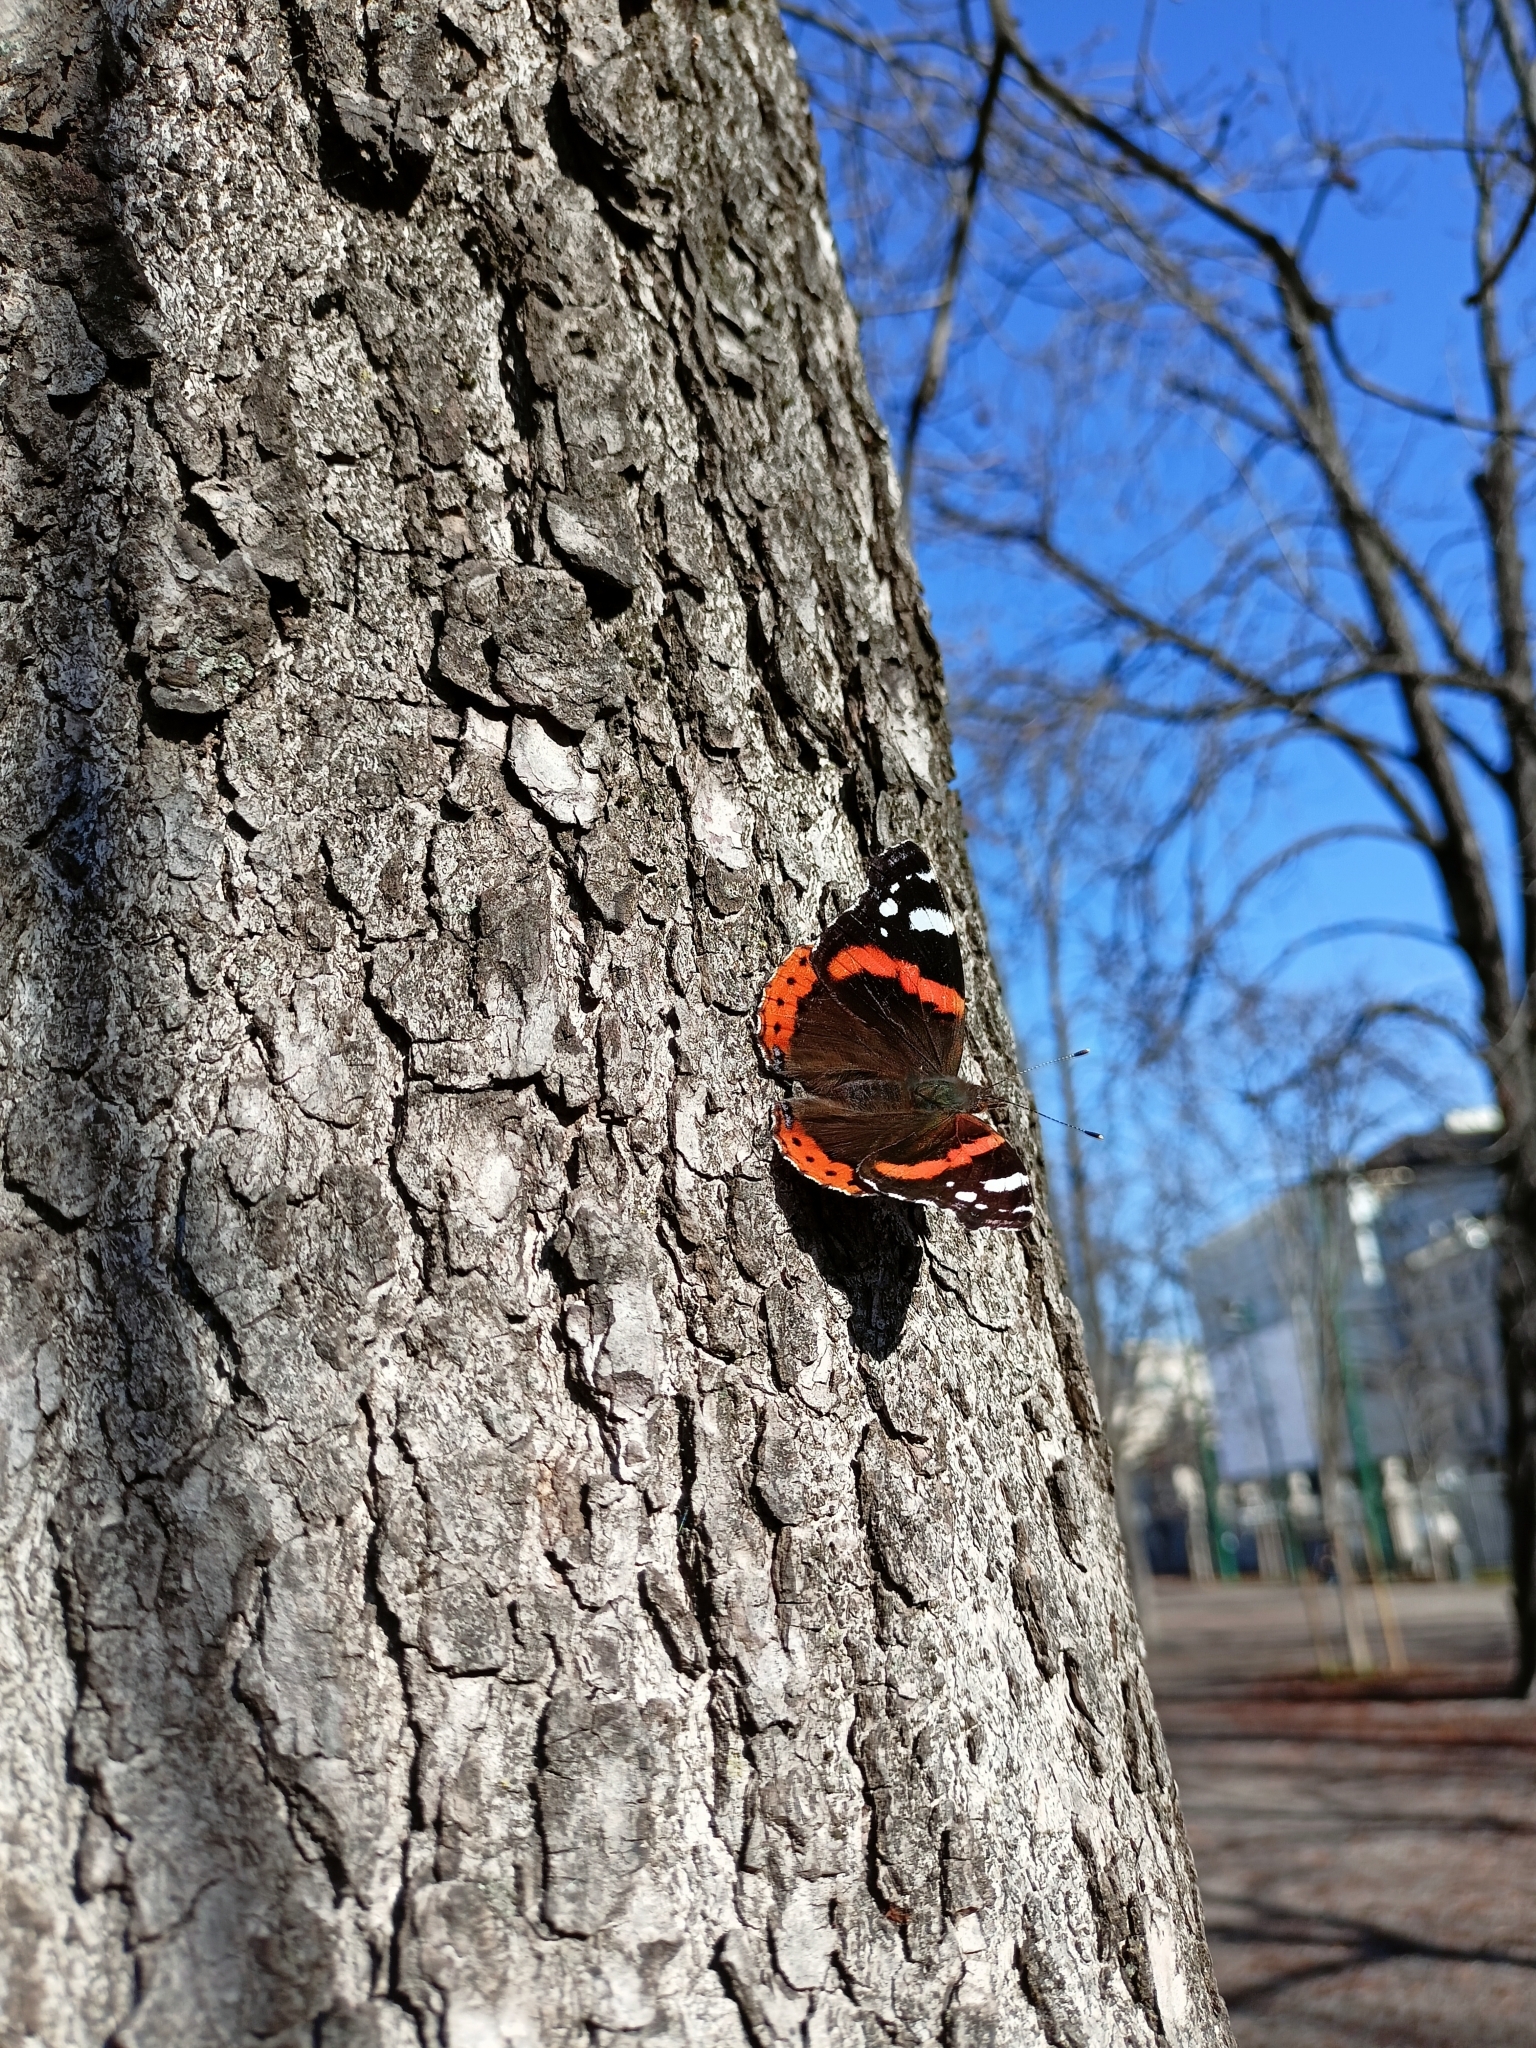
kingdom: Animalia
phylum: Arthropoda
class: Insecta
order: Lepidoptera
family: Nymphalidae
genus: Vanessa
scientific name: Vanessa atalanta
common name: Red admiral
